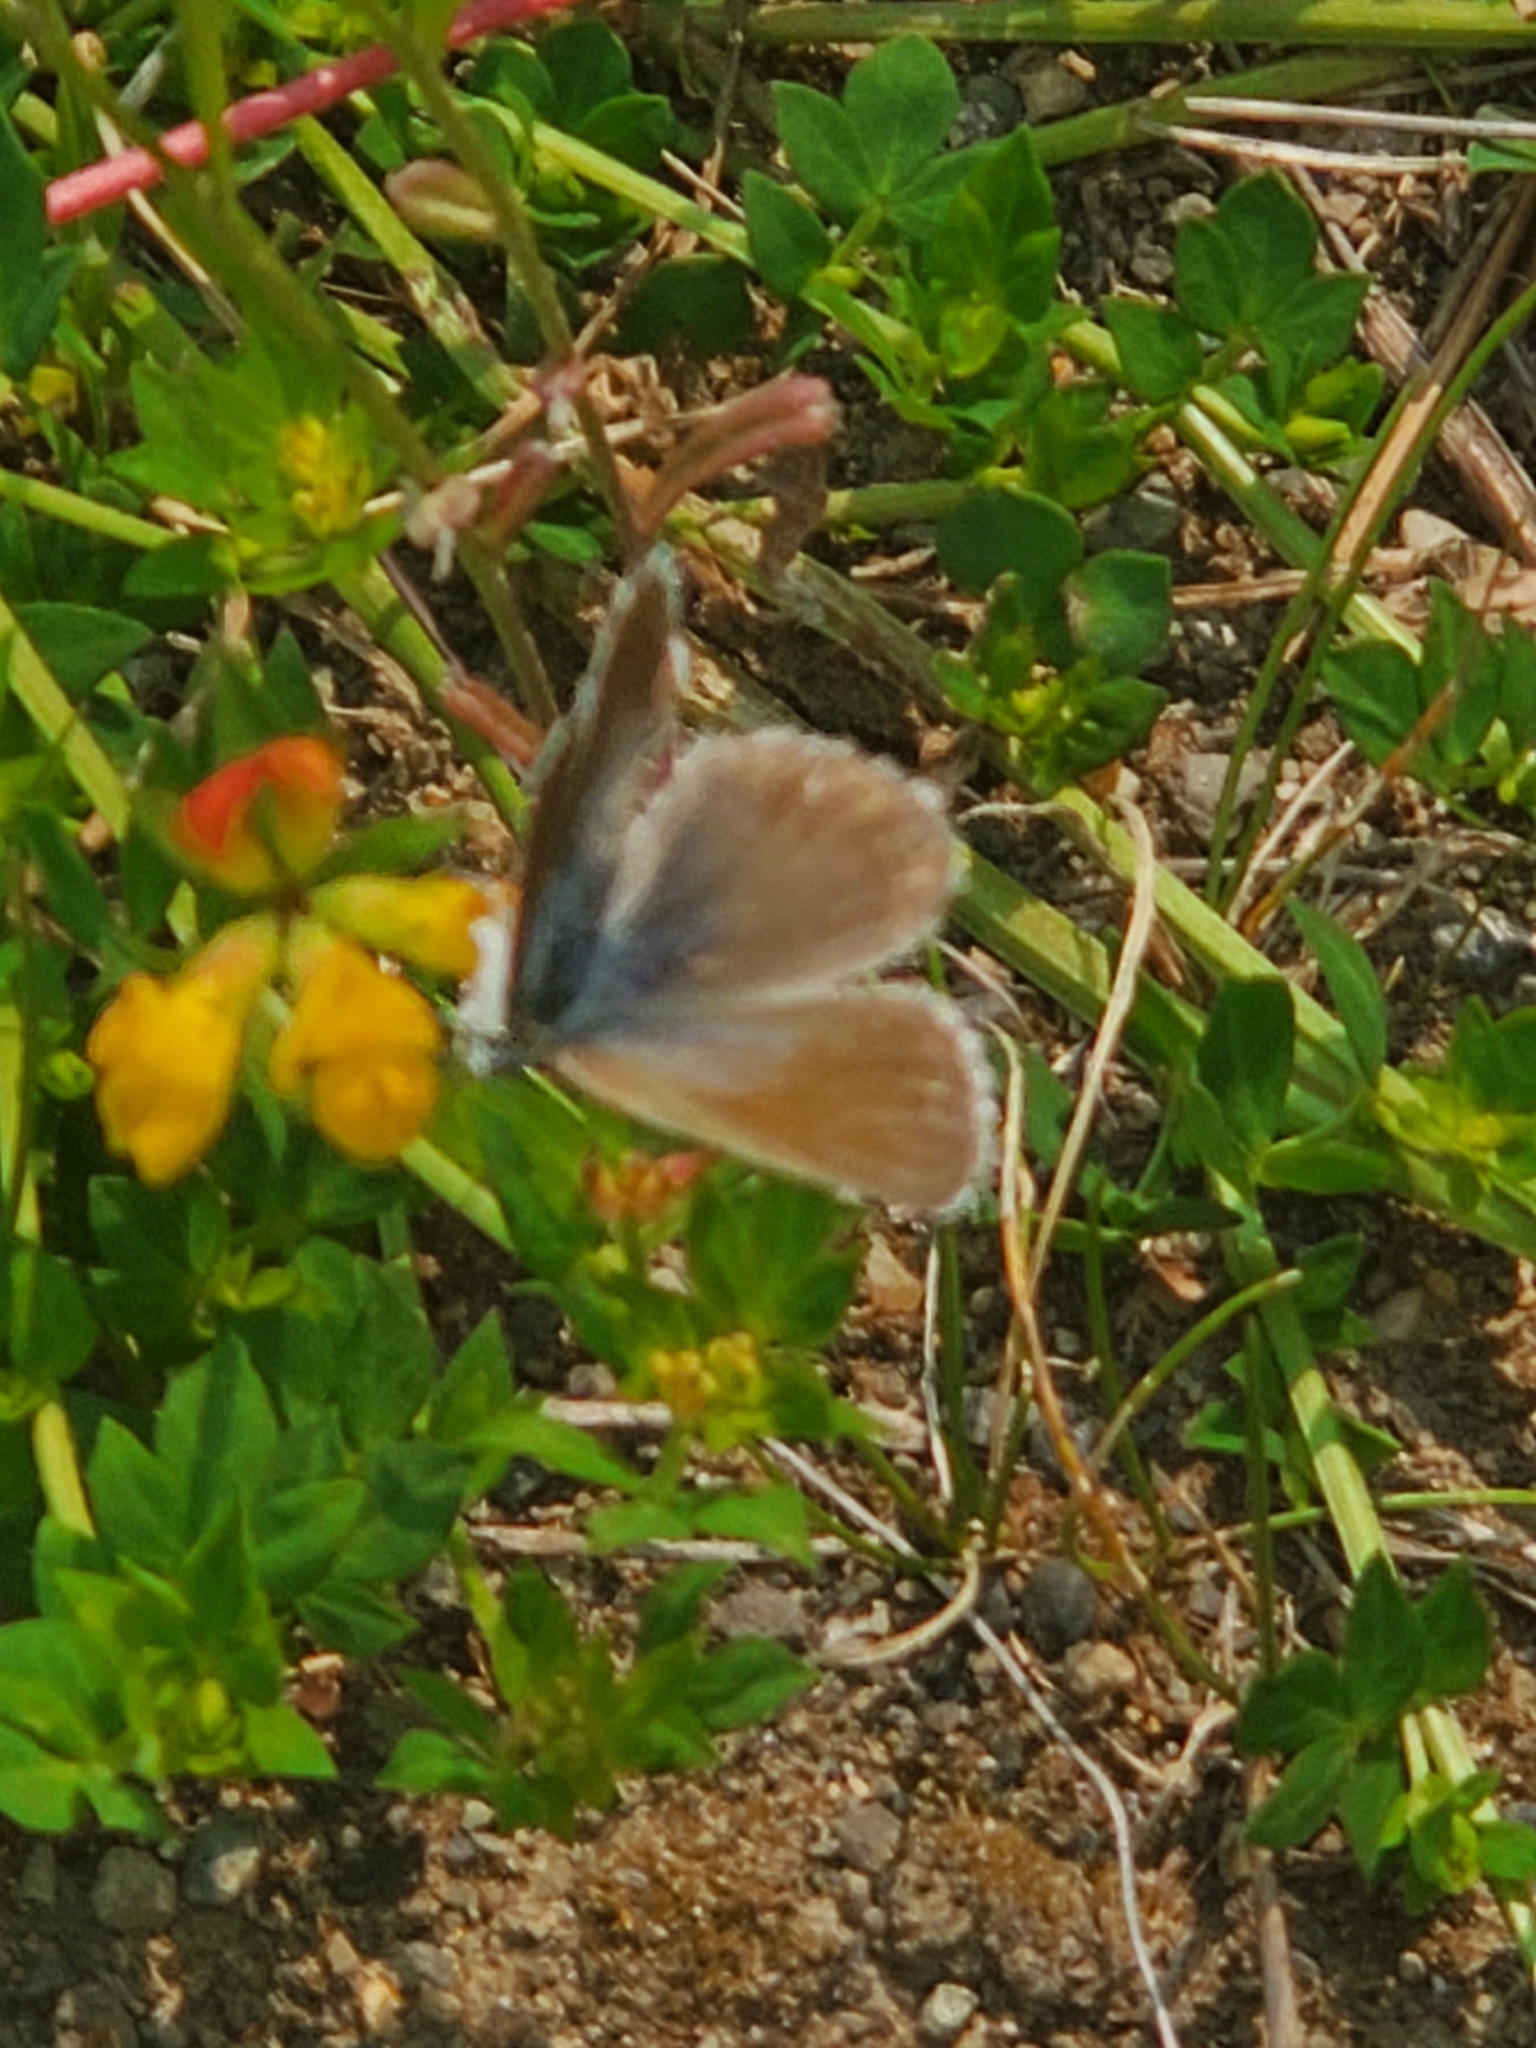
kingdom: Animalia
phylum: Arthropoda
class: Insecta
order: Lepidoptera
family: Lycaenidae
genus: Icaricia
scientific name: Icaricia icarioides
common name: Boisduval's blue
